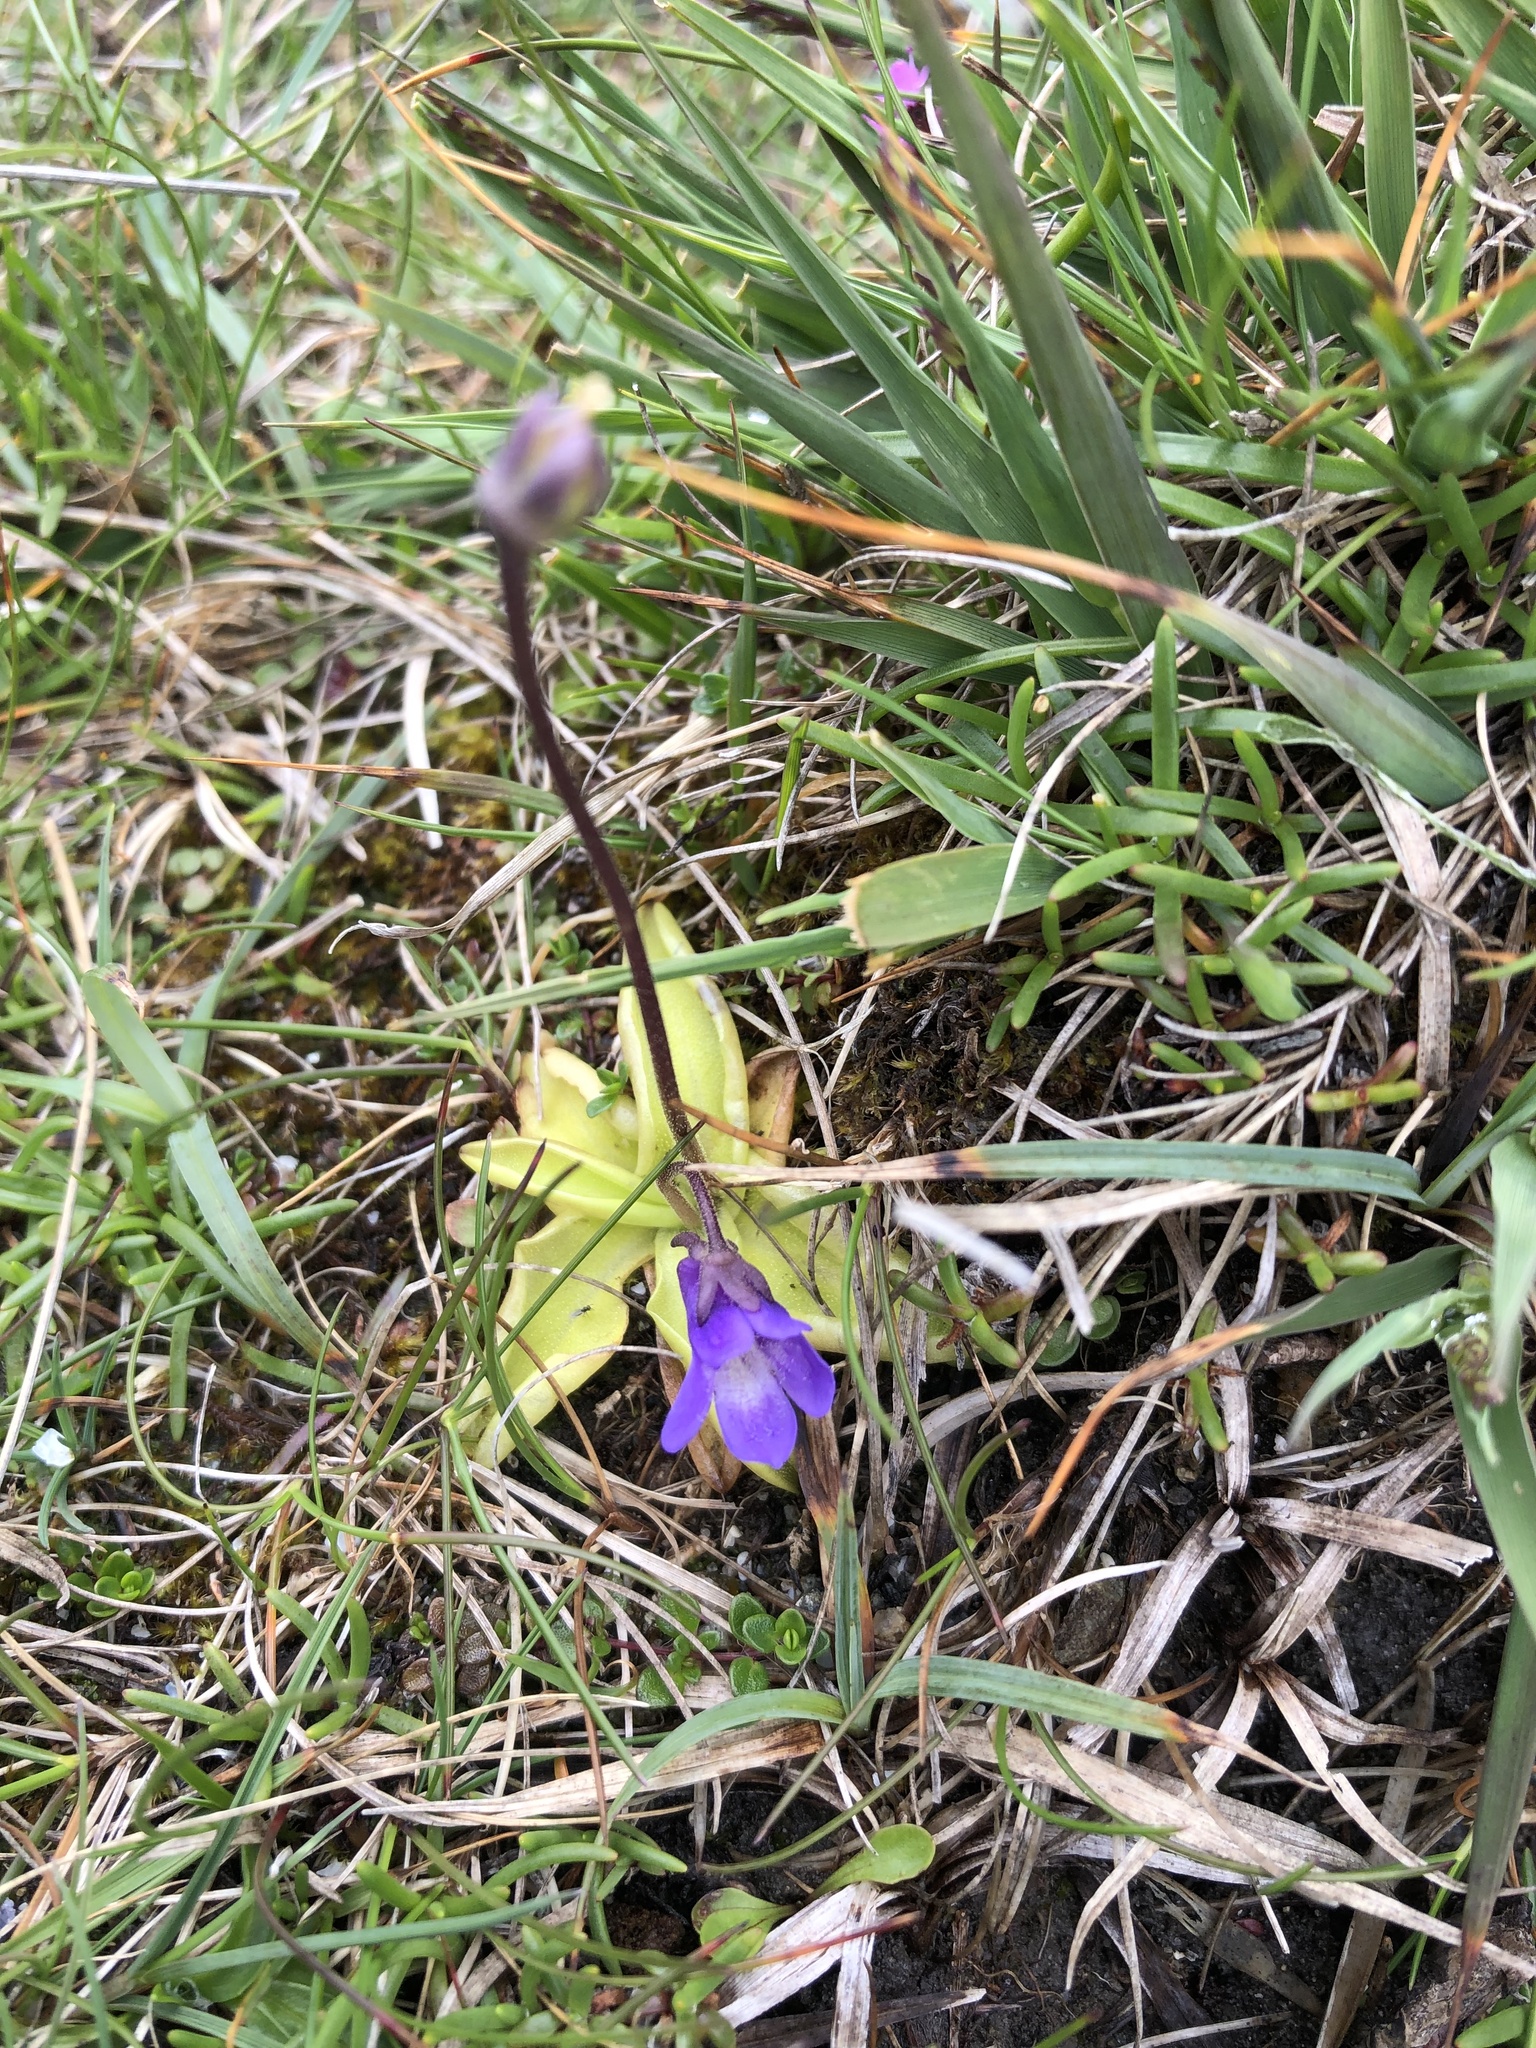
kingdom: Plantae
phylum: Tracheophyta
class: Magnoliopsida
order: Lamiales
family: Lentibulariaceae
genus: Pinguicula
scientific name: Pinguicula vulgaris
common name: Common butterwort
